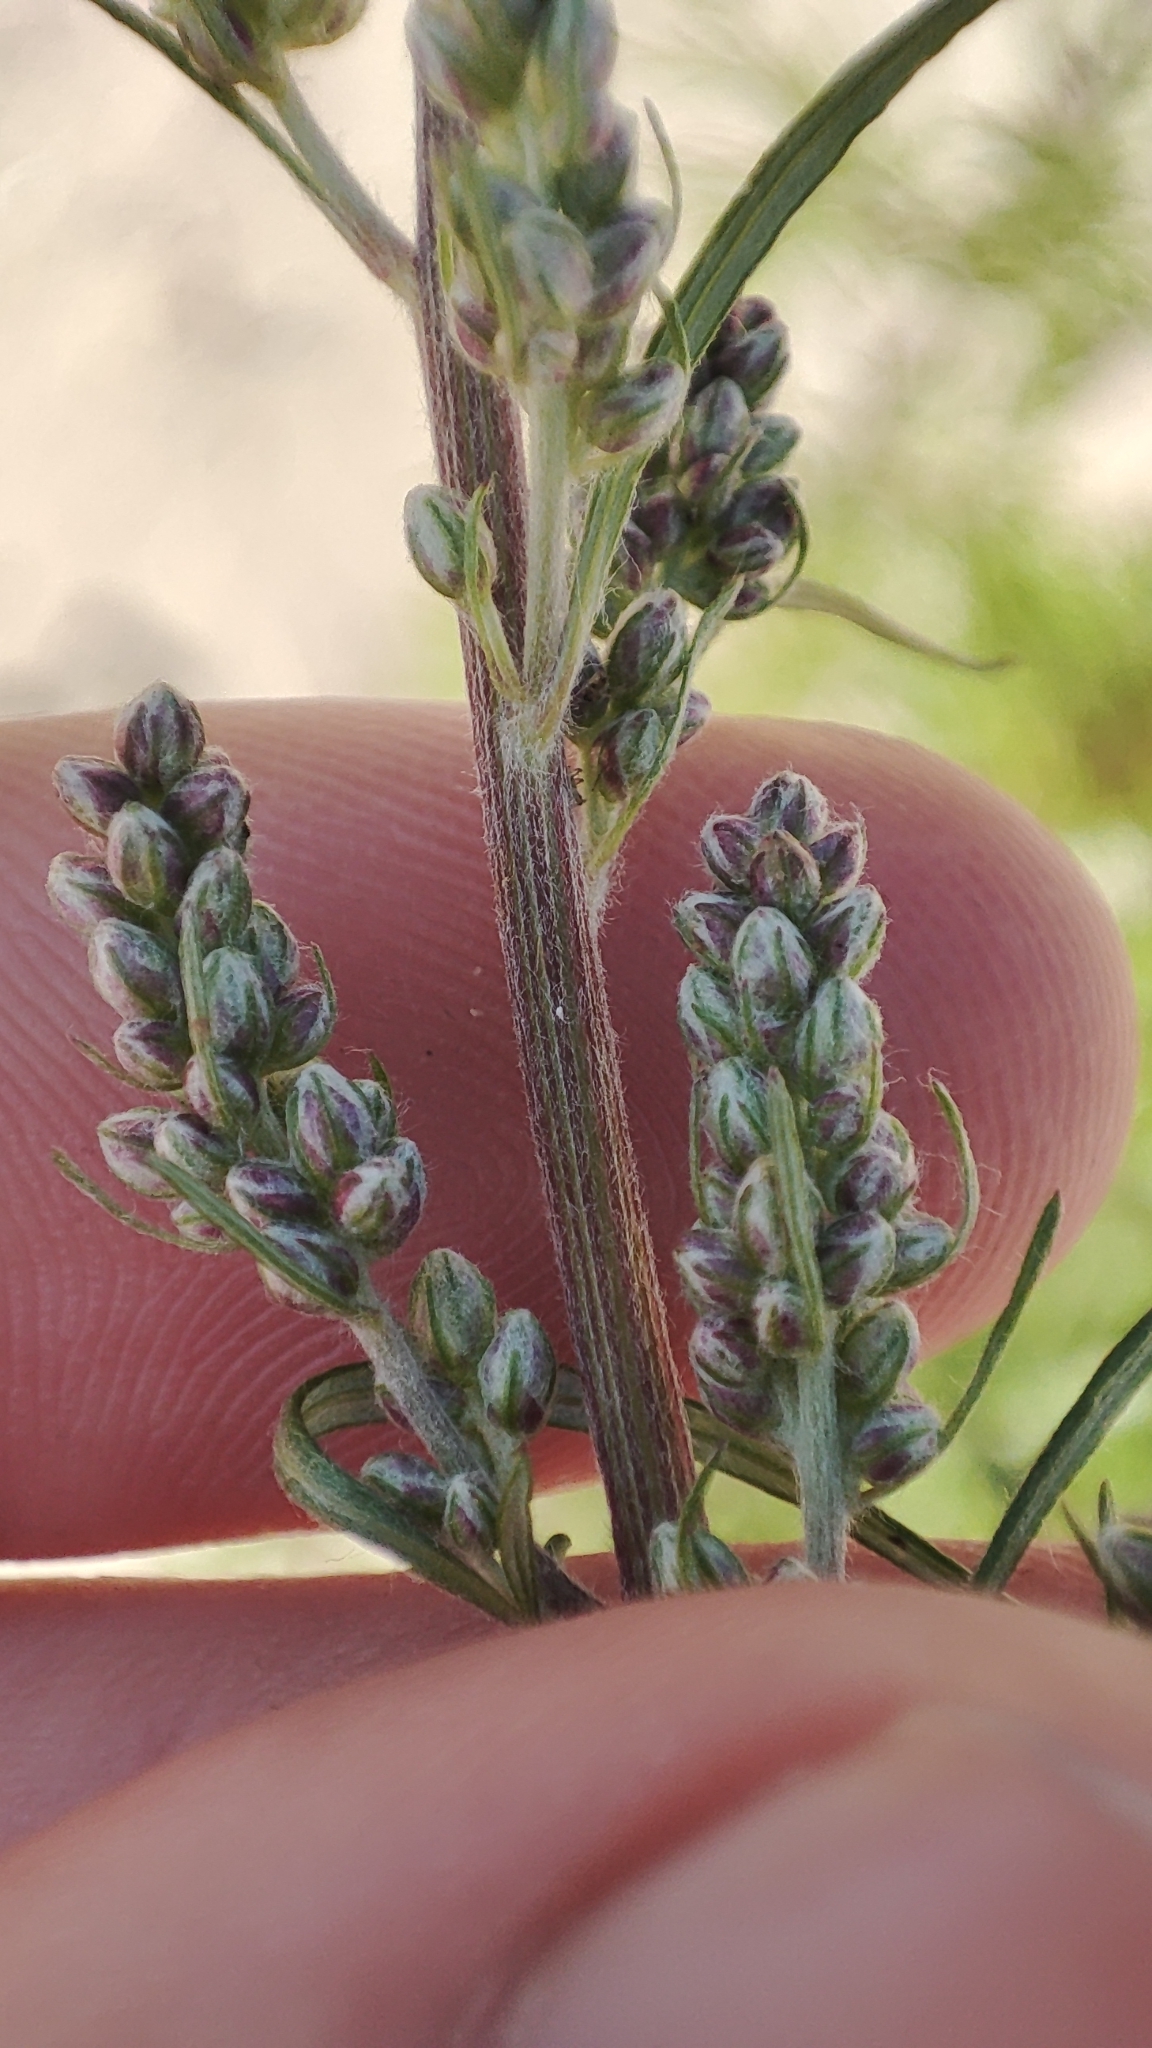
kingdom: Plantae
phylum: Tracheophyta
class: Magnoliopsida
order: Asterales
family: Asteraceae
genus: Artemisia
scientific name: Artemisia vulgaris
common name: Mugwort
